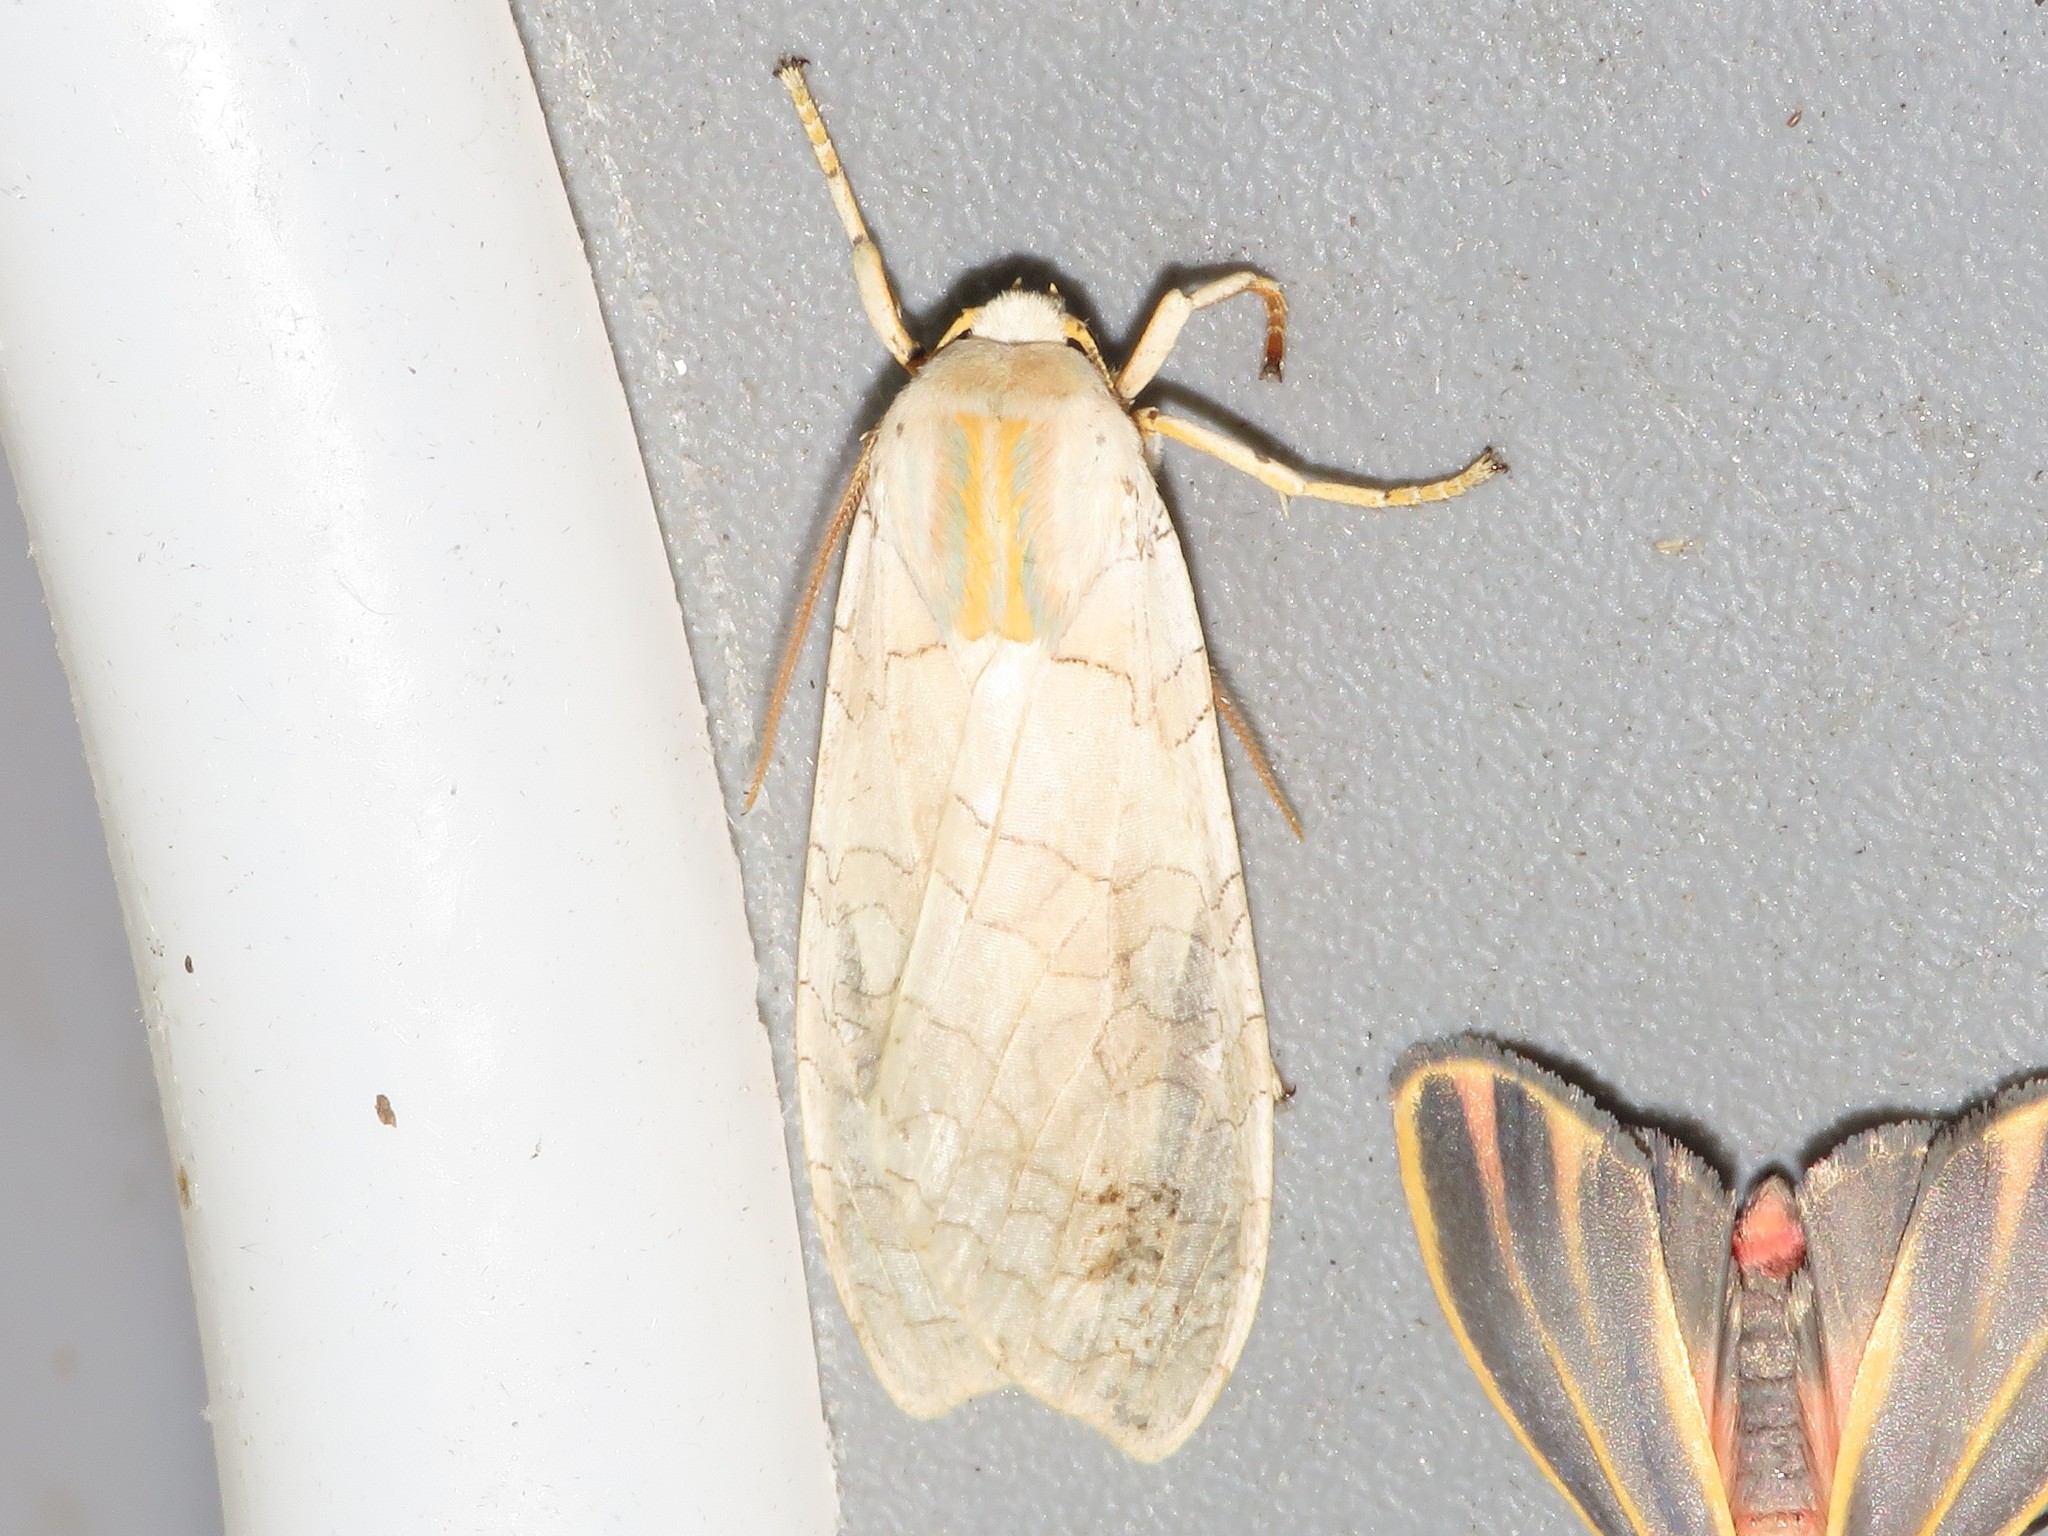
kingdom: Animalia
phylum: Arthropoda
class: Insecta
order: Lepidoptera
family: Erebidae
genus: Halysidota
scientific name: Halysidota tessellaris
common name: Banded tussock moth
